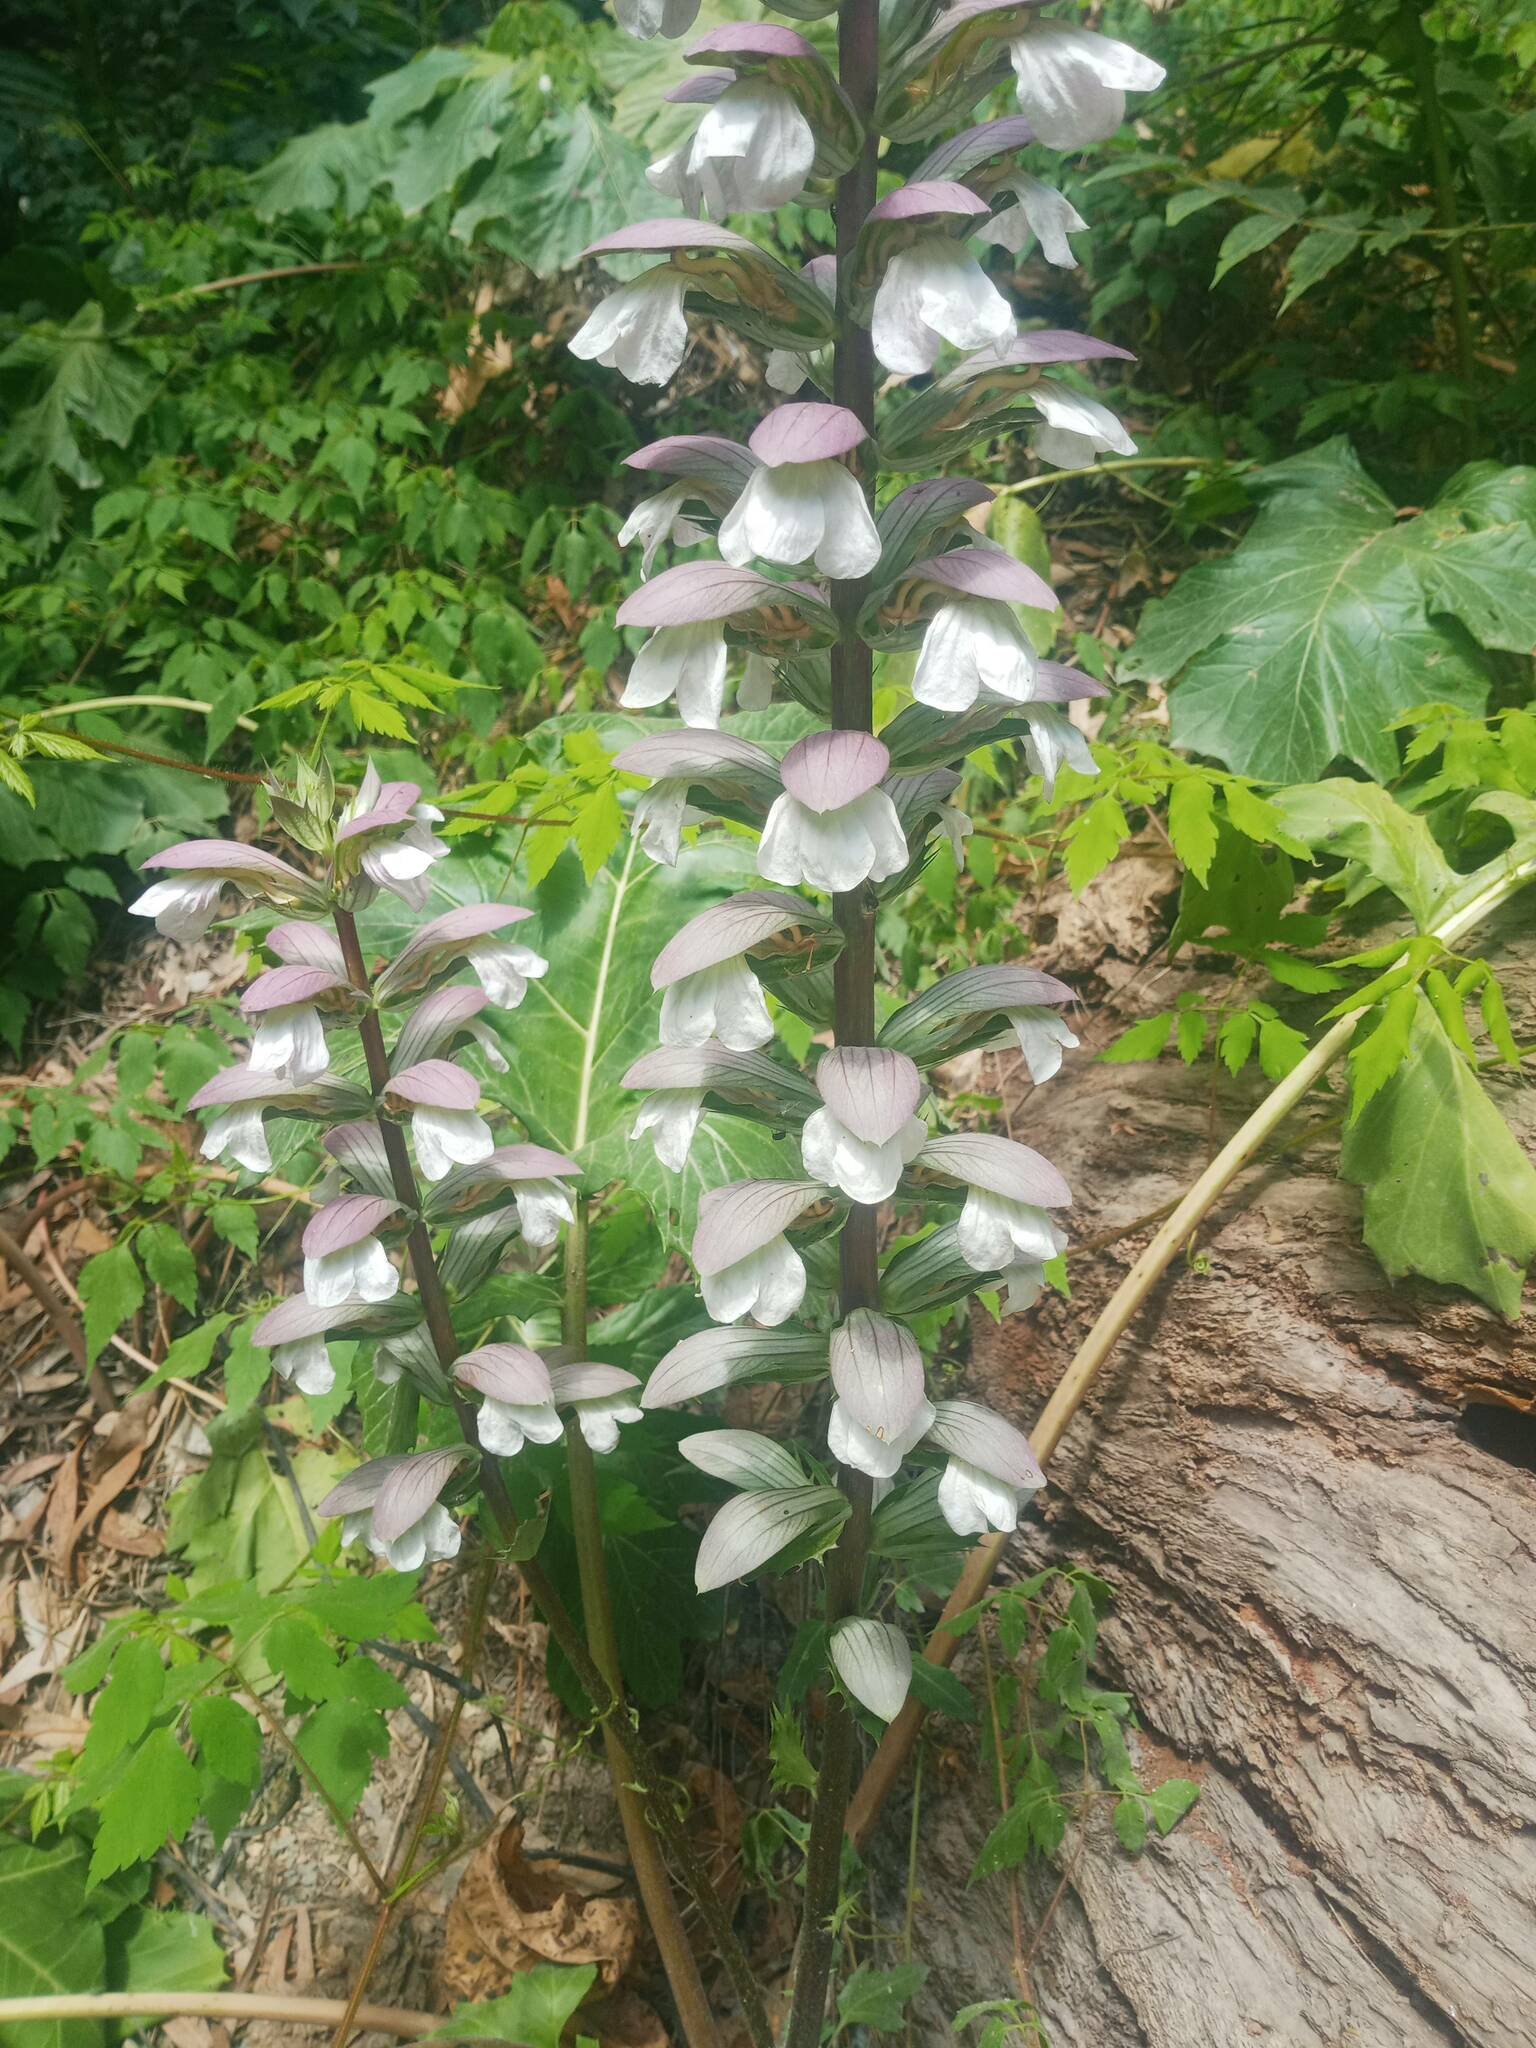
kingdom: Plantae
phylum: Tracheophyta
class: Magnoliopsida
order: Lamiales
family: Acanthaceae
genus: Acanthus
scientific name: Acanthus mollis
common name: Bear's-breech
